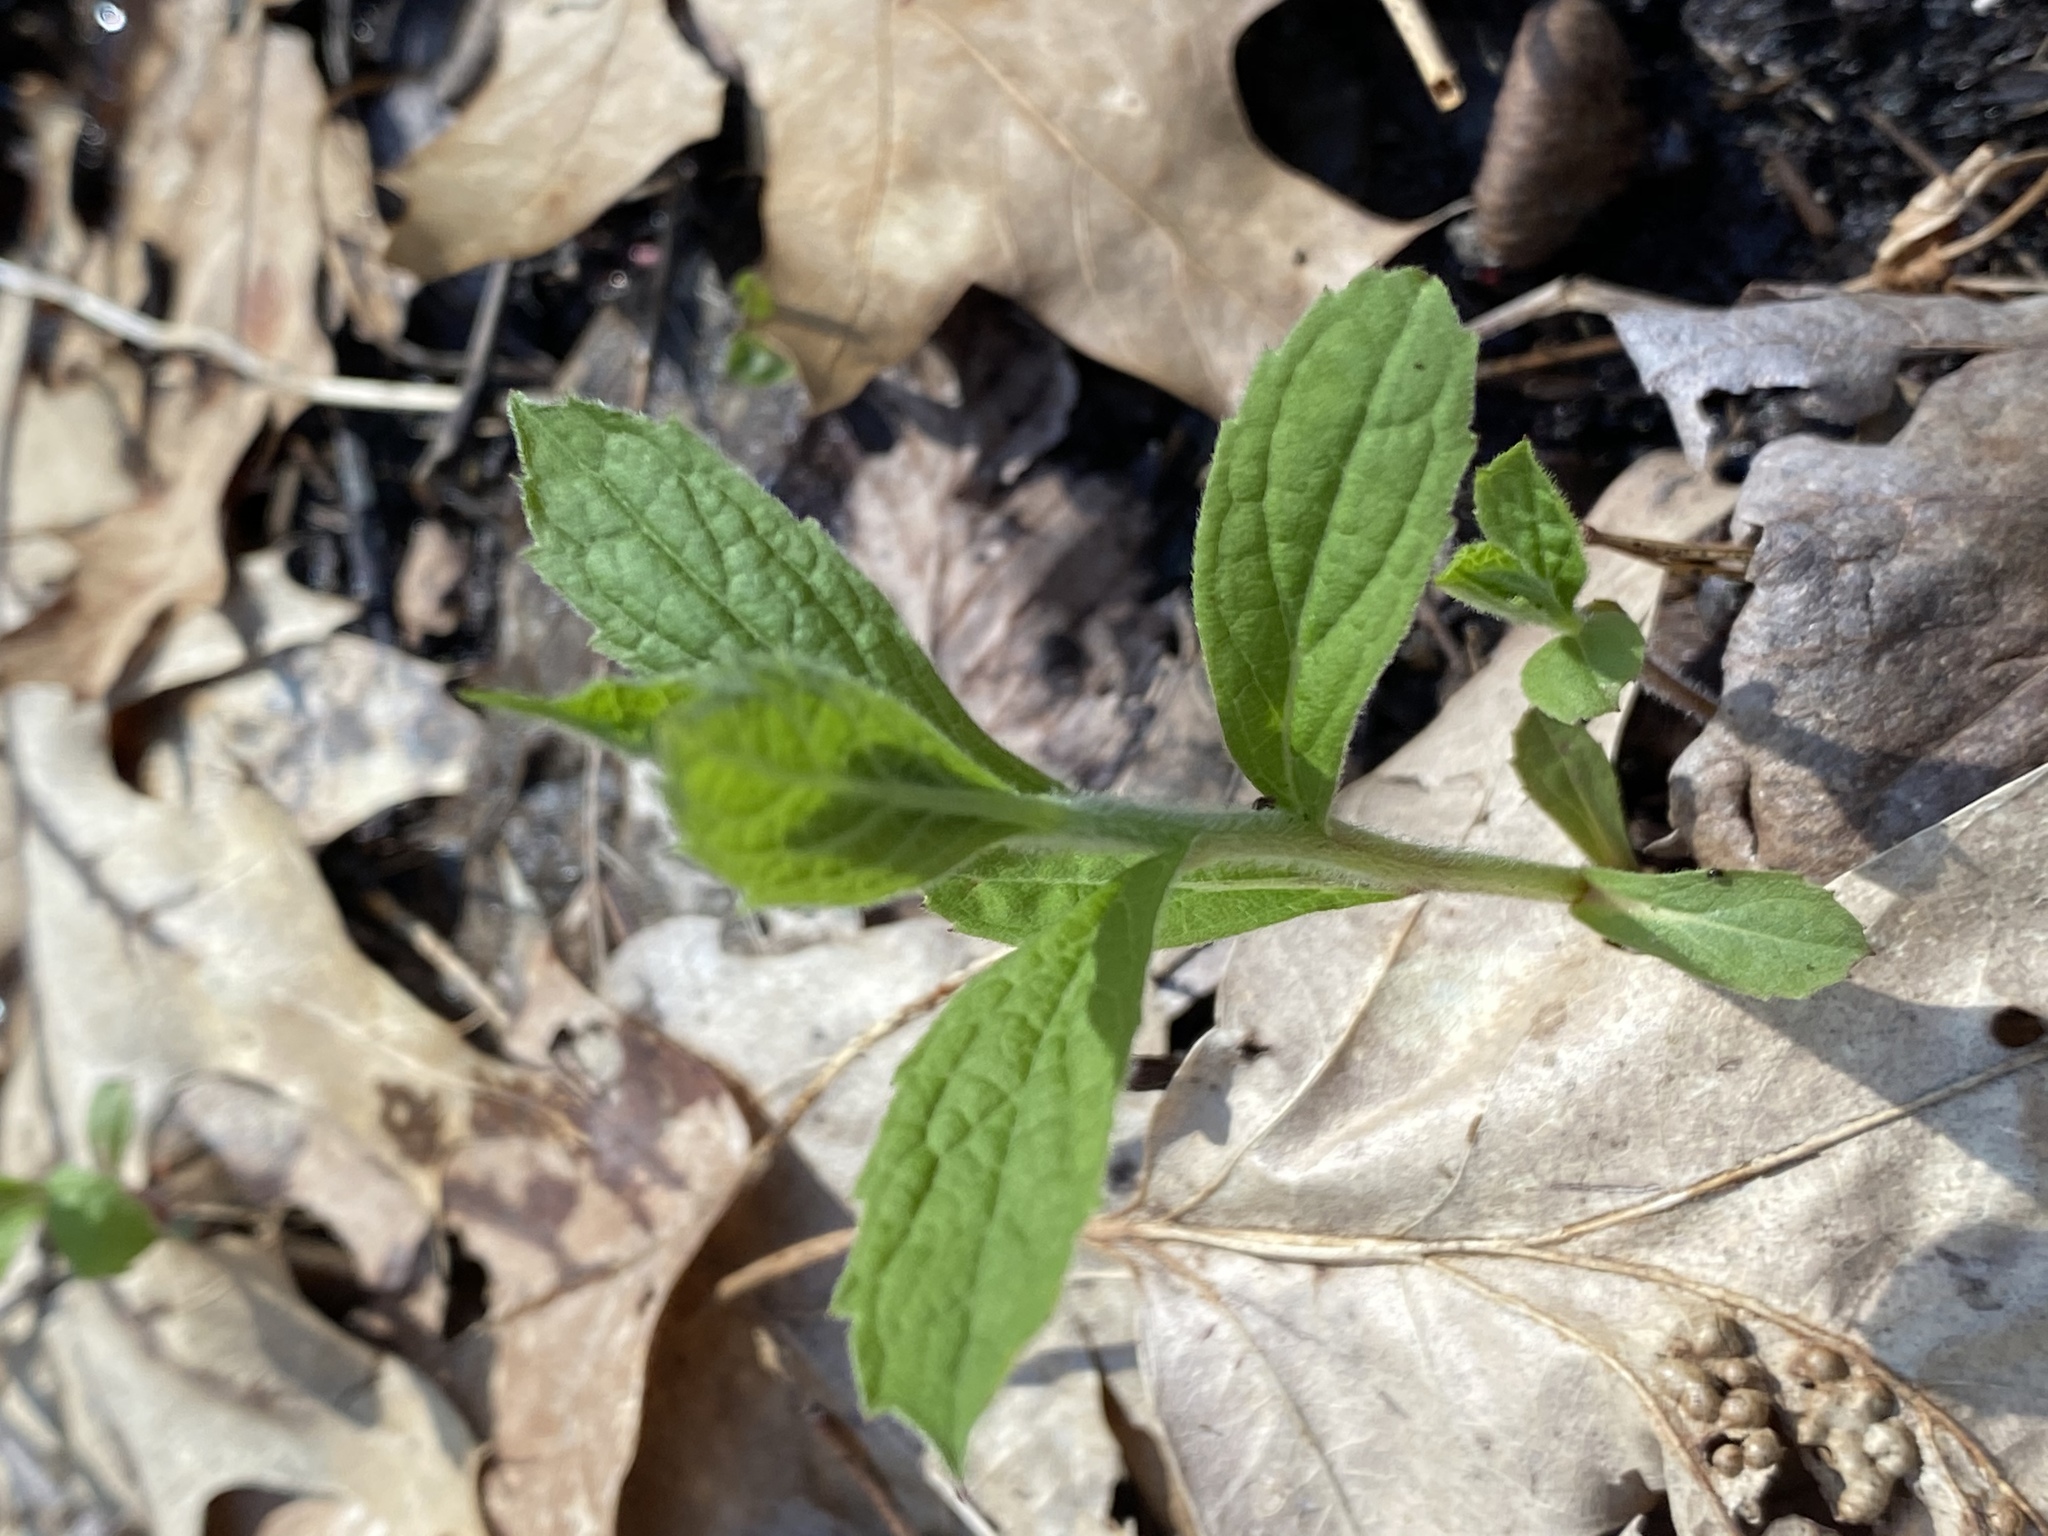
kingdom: Plantae
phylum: Tracheophyta
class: Magnoliopsida
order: Asterales
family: Asteraceae
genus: Solidago
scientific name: Solidago rugosa
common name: Rough-stemmed goldenrod
